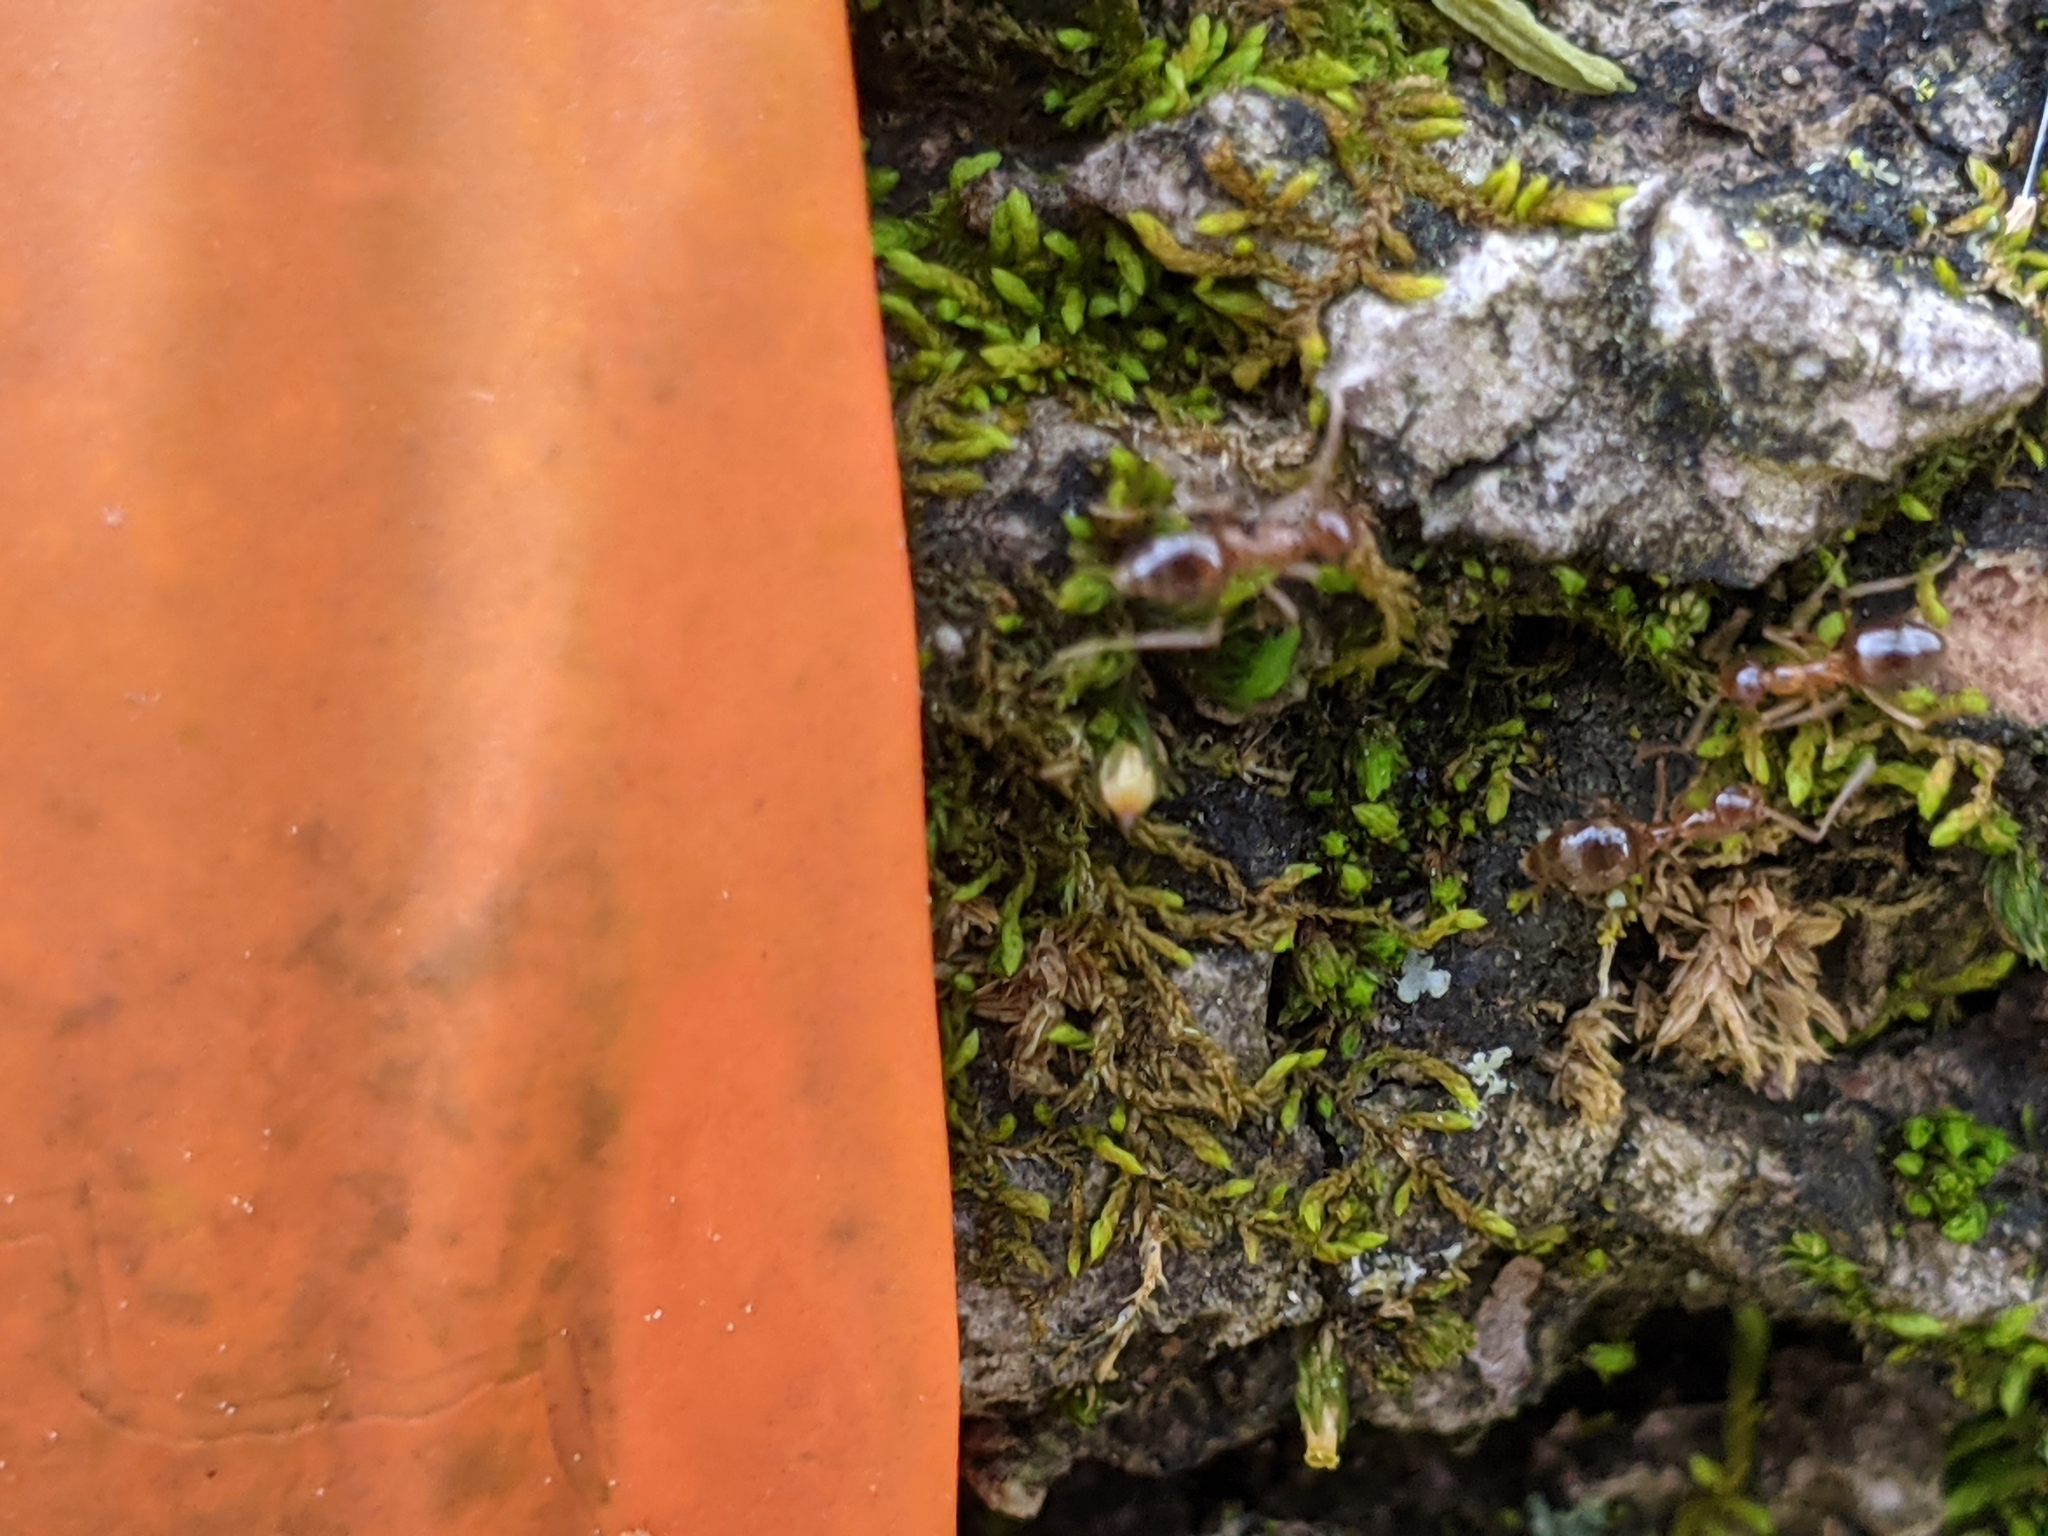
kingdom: Animalia
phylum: Arthropoda
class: Insecta
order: Hymenoptera
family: Formicidae
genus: Prenolepis
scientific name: Prenolepis imparis
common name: Small honey ant
